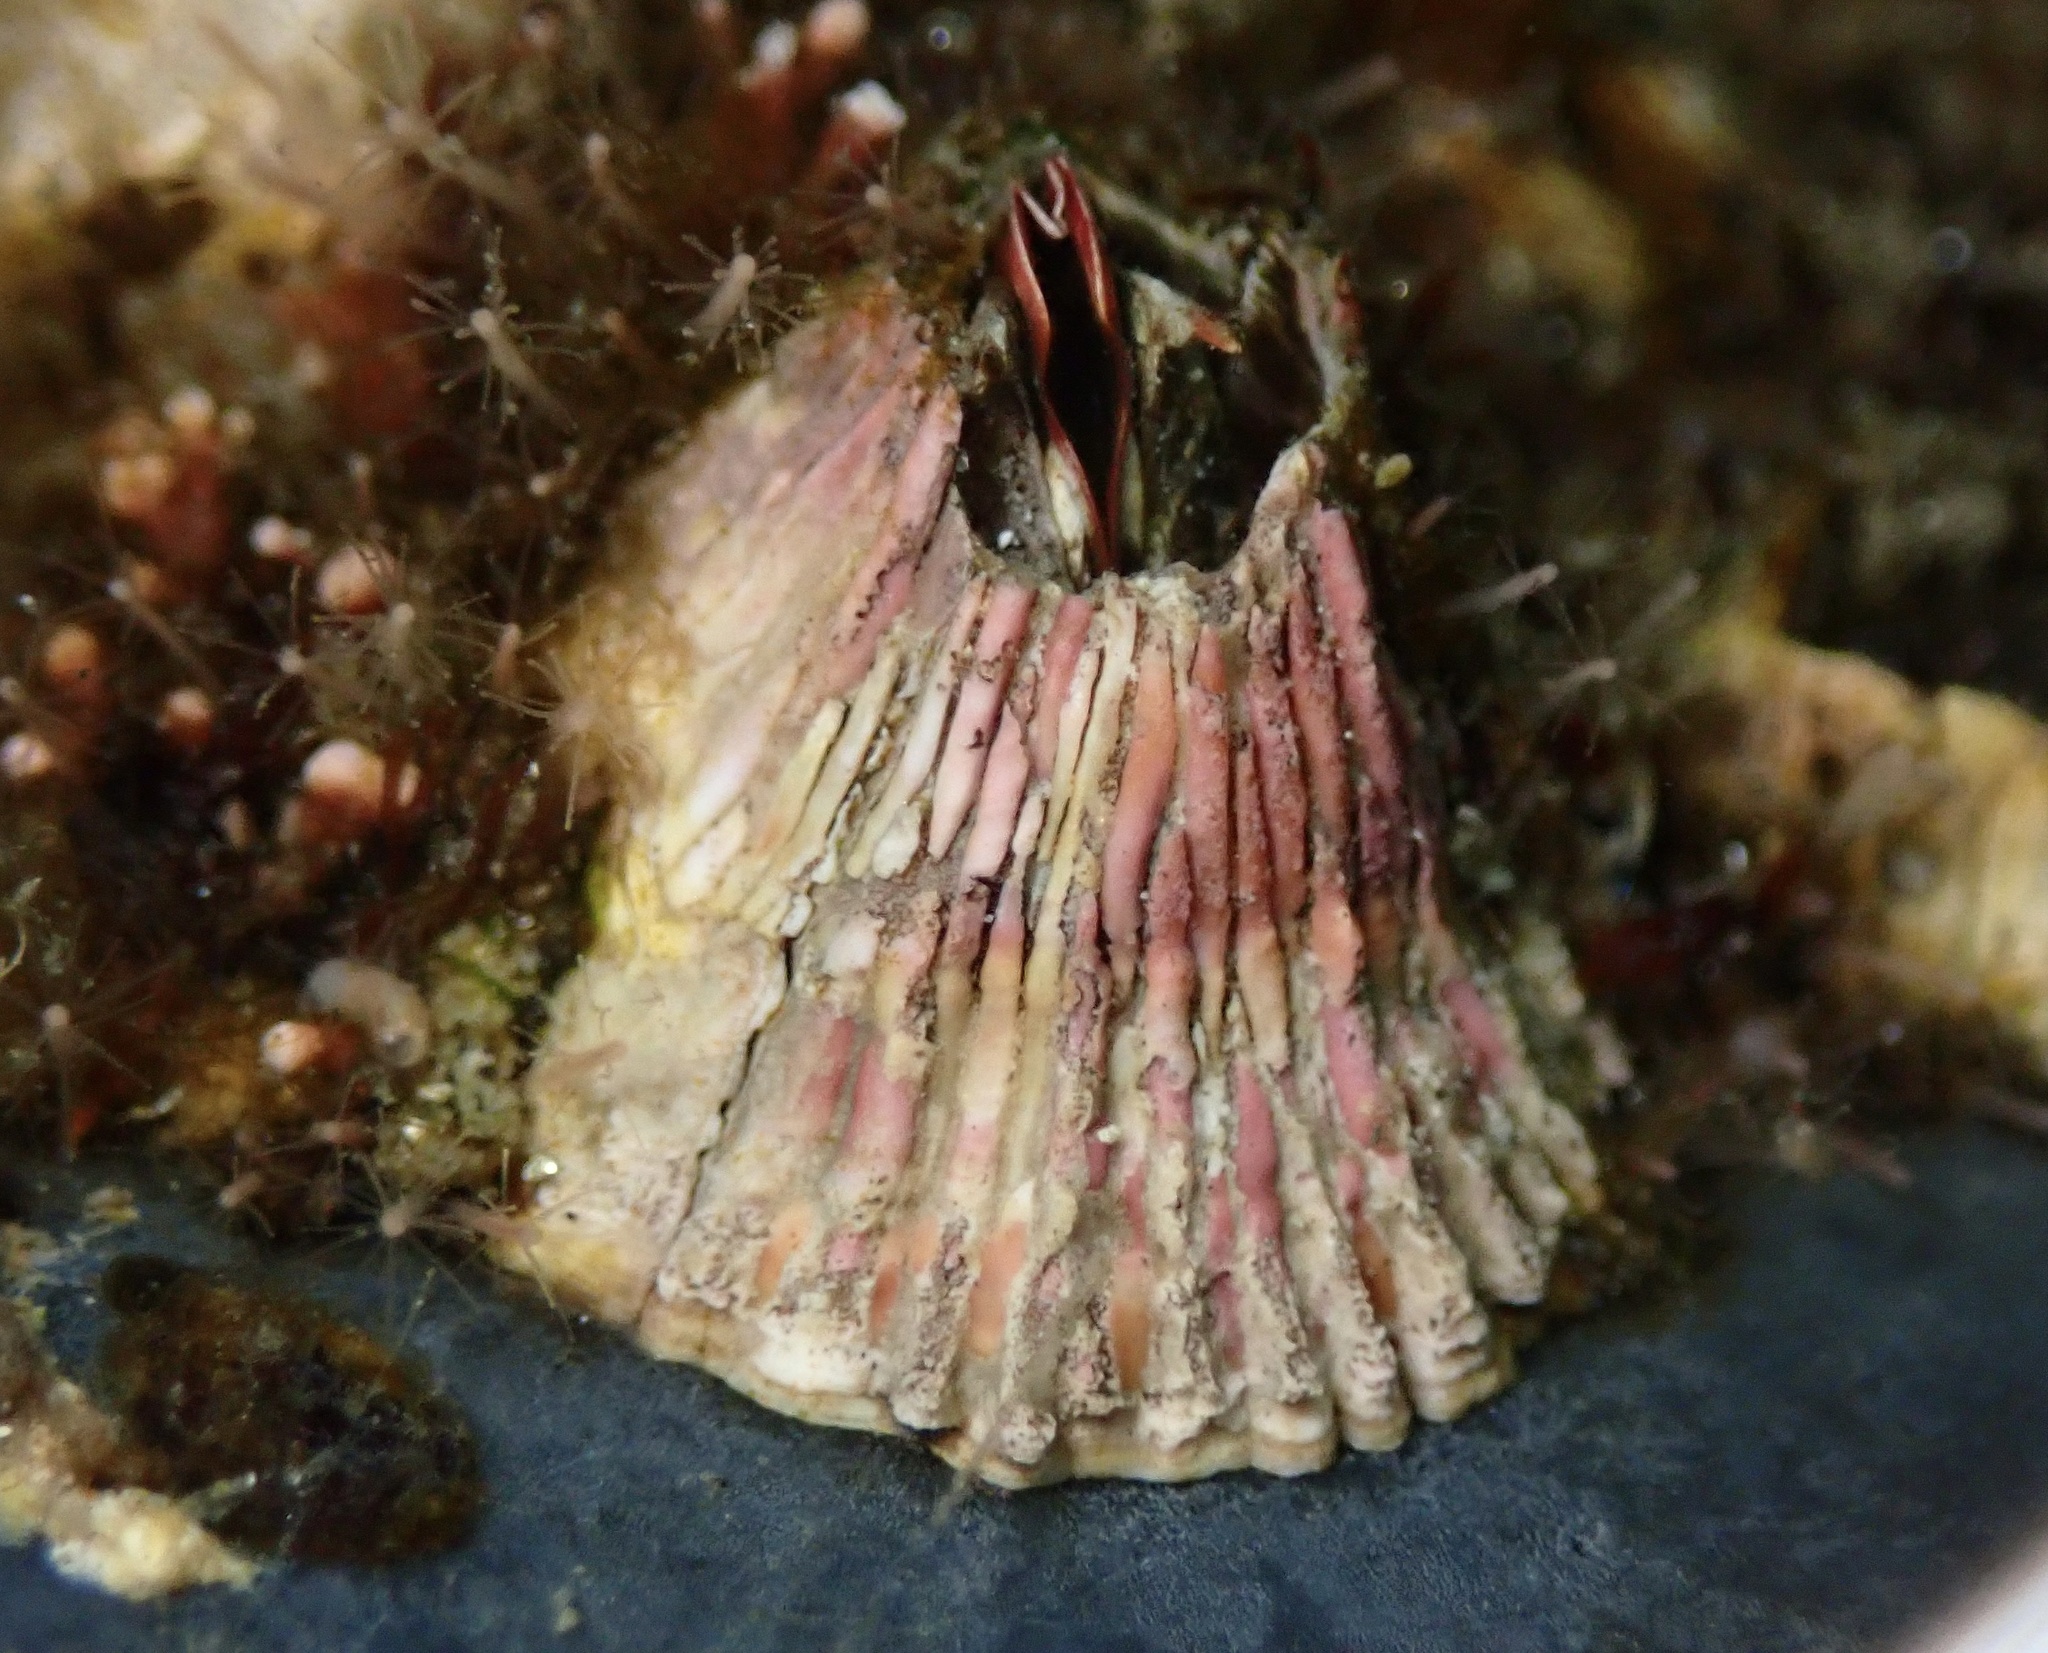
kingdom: Animalia
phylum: Arthropoda
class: Maxillopoda
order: Sessilia
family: Tetraclitidae
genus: Tetraclita
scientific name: Tetraclita rubescens
